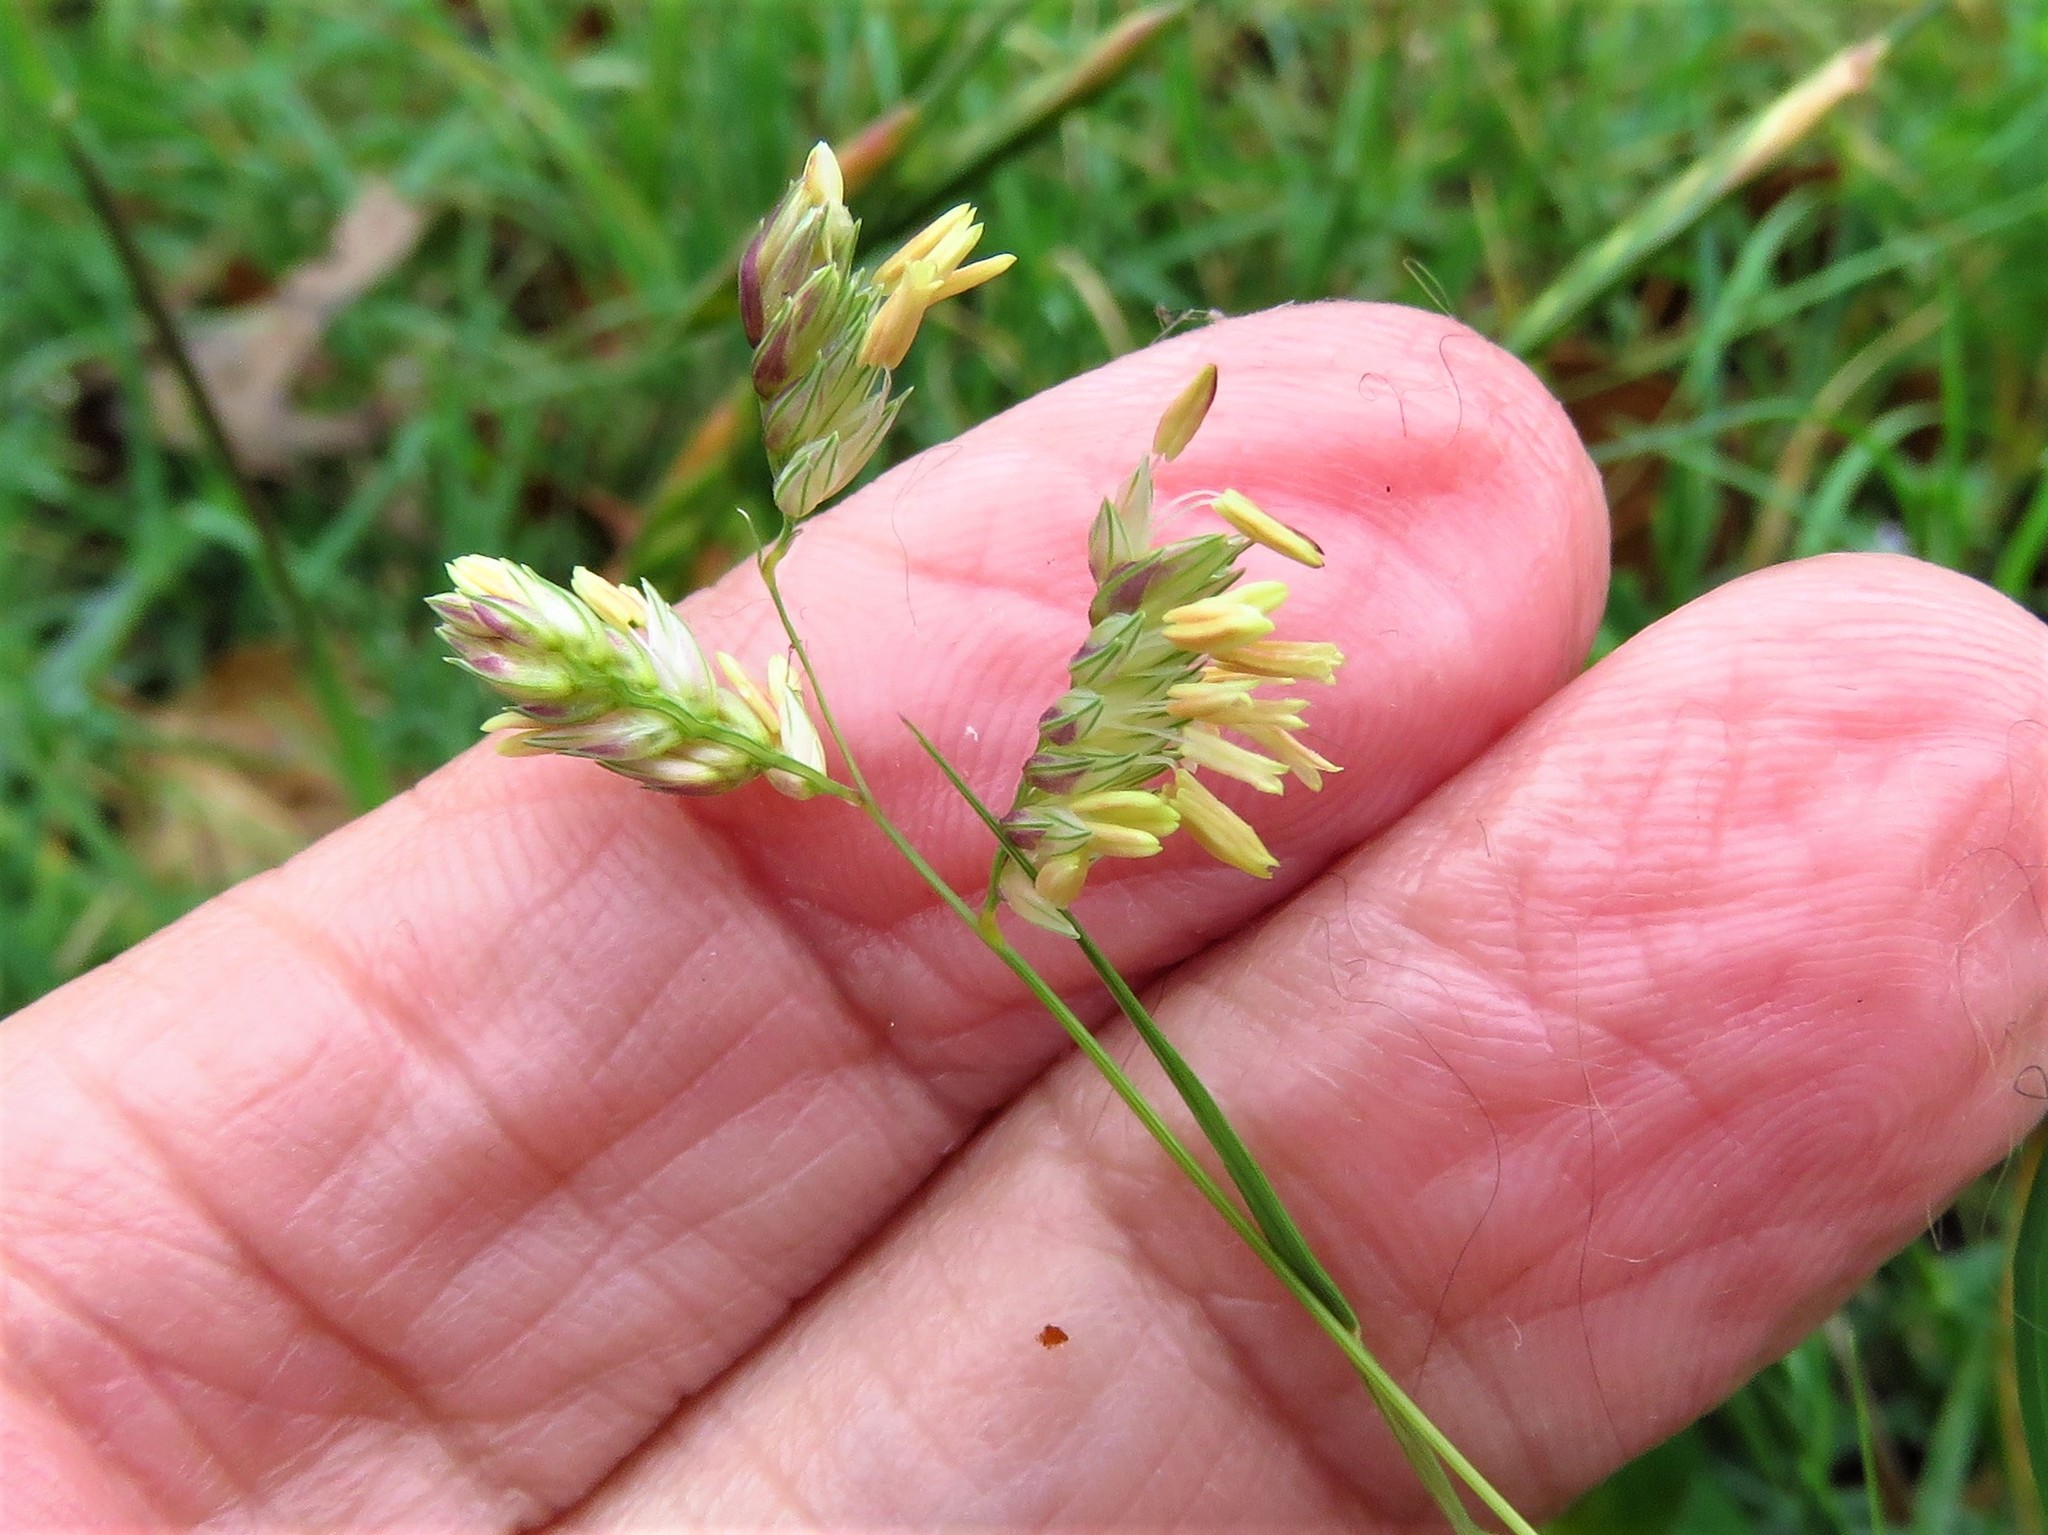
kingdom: Plantae
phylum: Tracheophyta
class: Liliopsida
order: Poales
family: Poaceae
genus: Bouteloua
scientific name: Bouteloua dactyloides
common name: Buffalo grass
